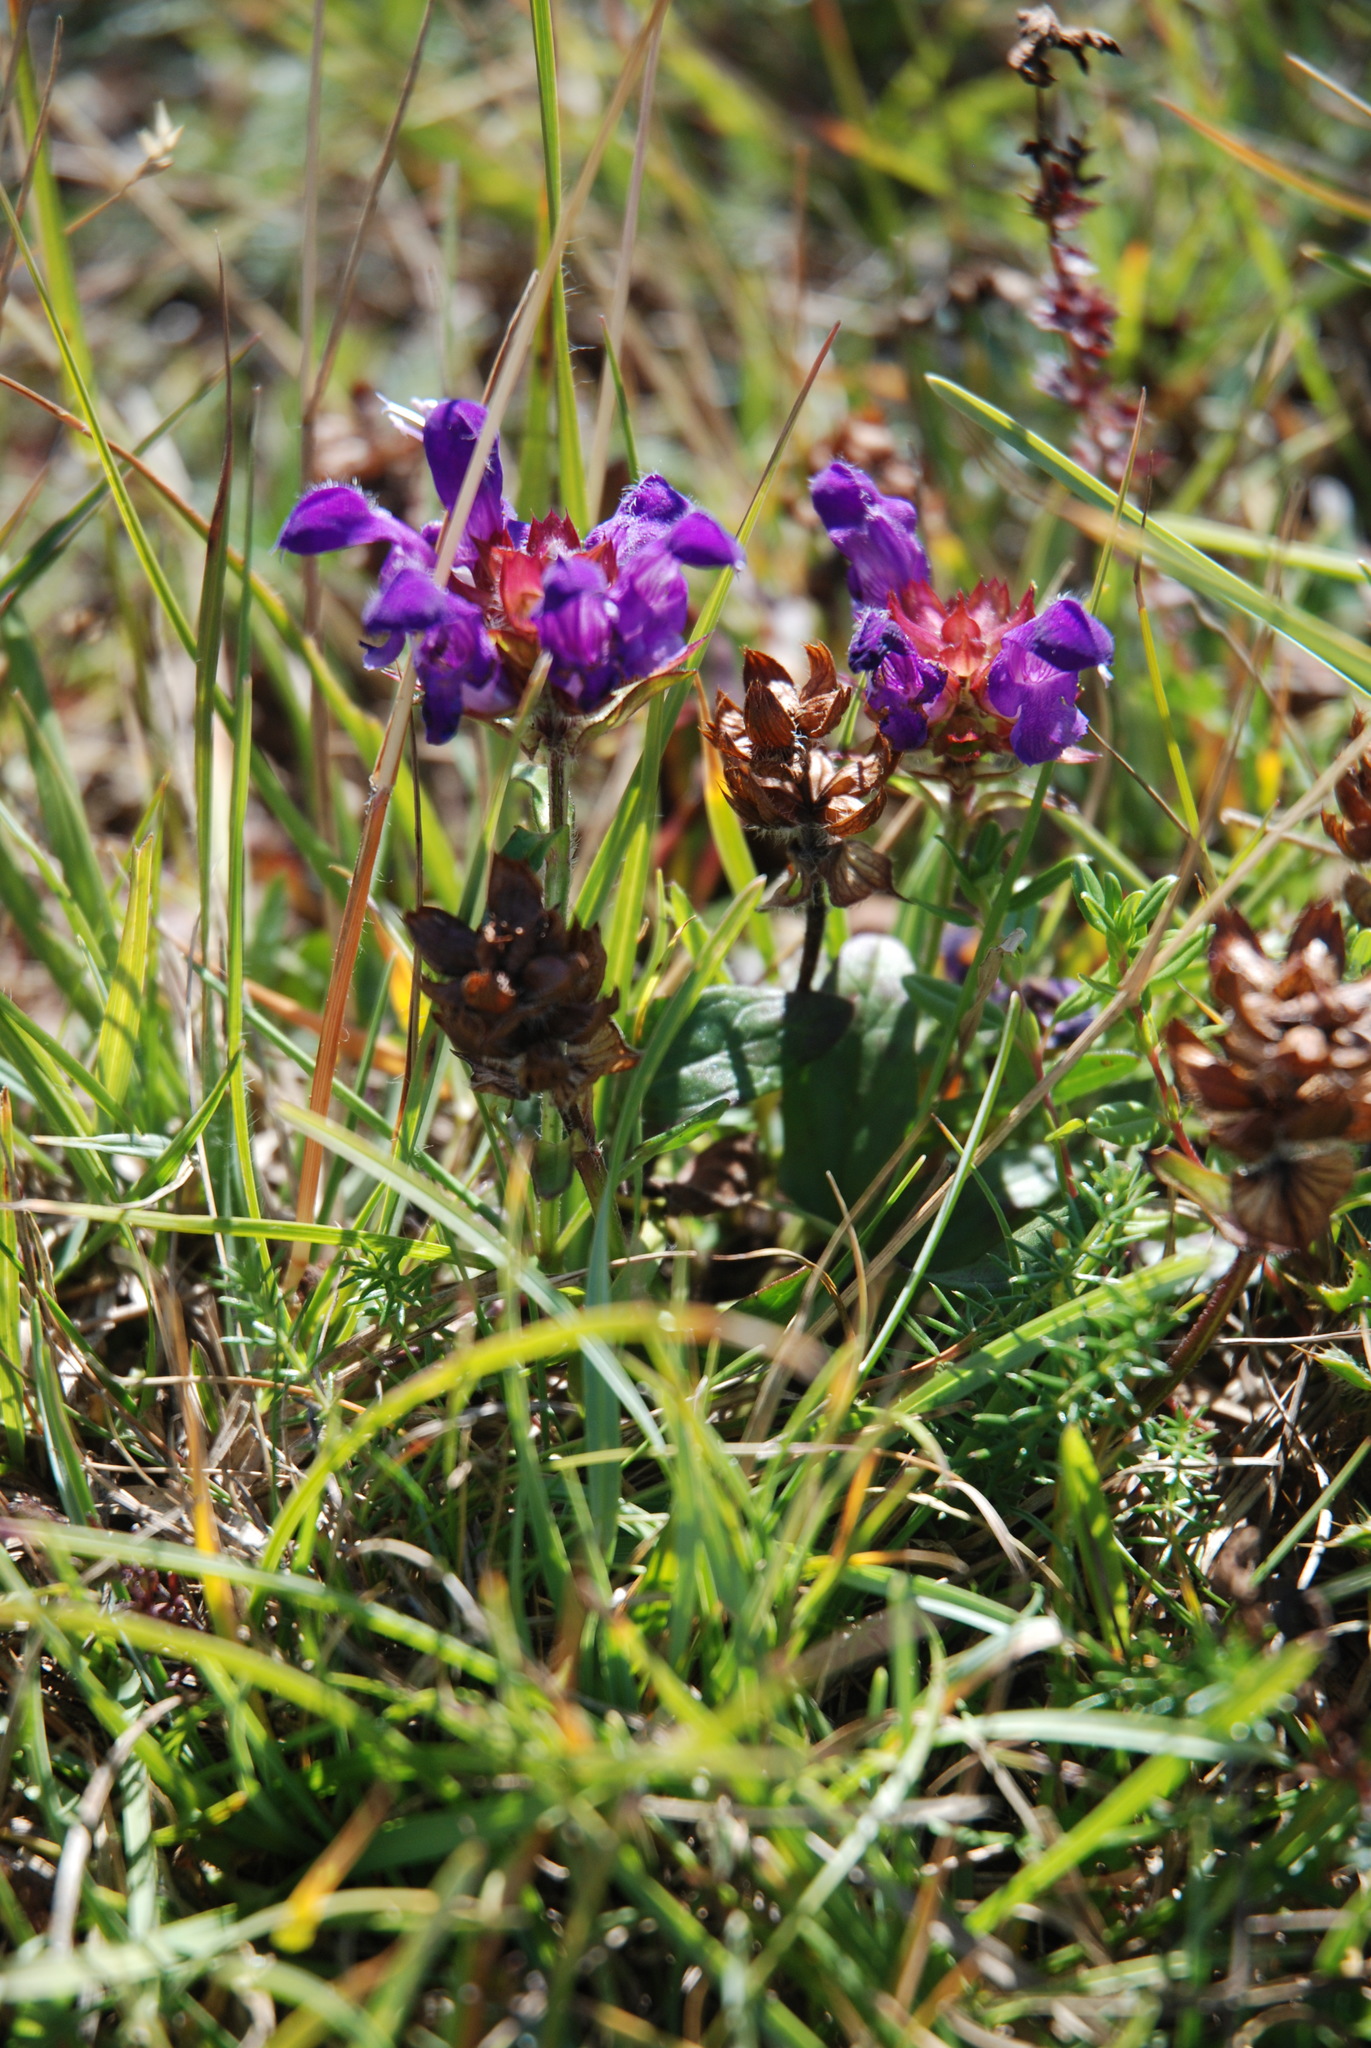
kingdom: Plantae
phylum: Tracheophyta
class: Magnoliopsida
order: Lamiales
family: Lamiaceae
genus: Prunella
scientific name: Prunella grandiflora
